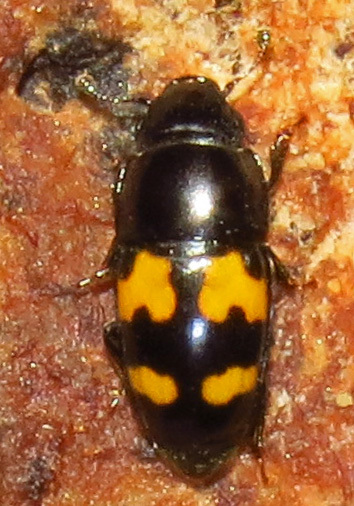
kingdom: Animalia
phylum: Arthropoda
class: Insecta
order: Coleoptera
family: Nitidulidae
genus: Glischrochilus
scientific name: Glischrochilus fasciatus
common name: Picnic beetle
